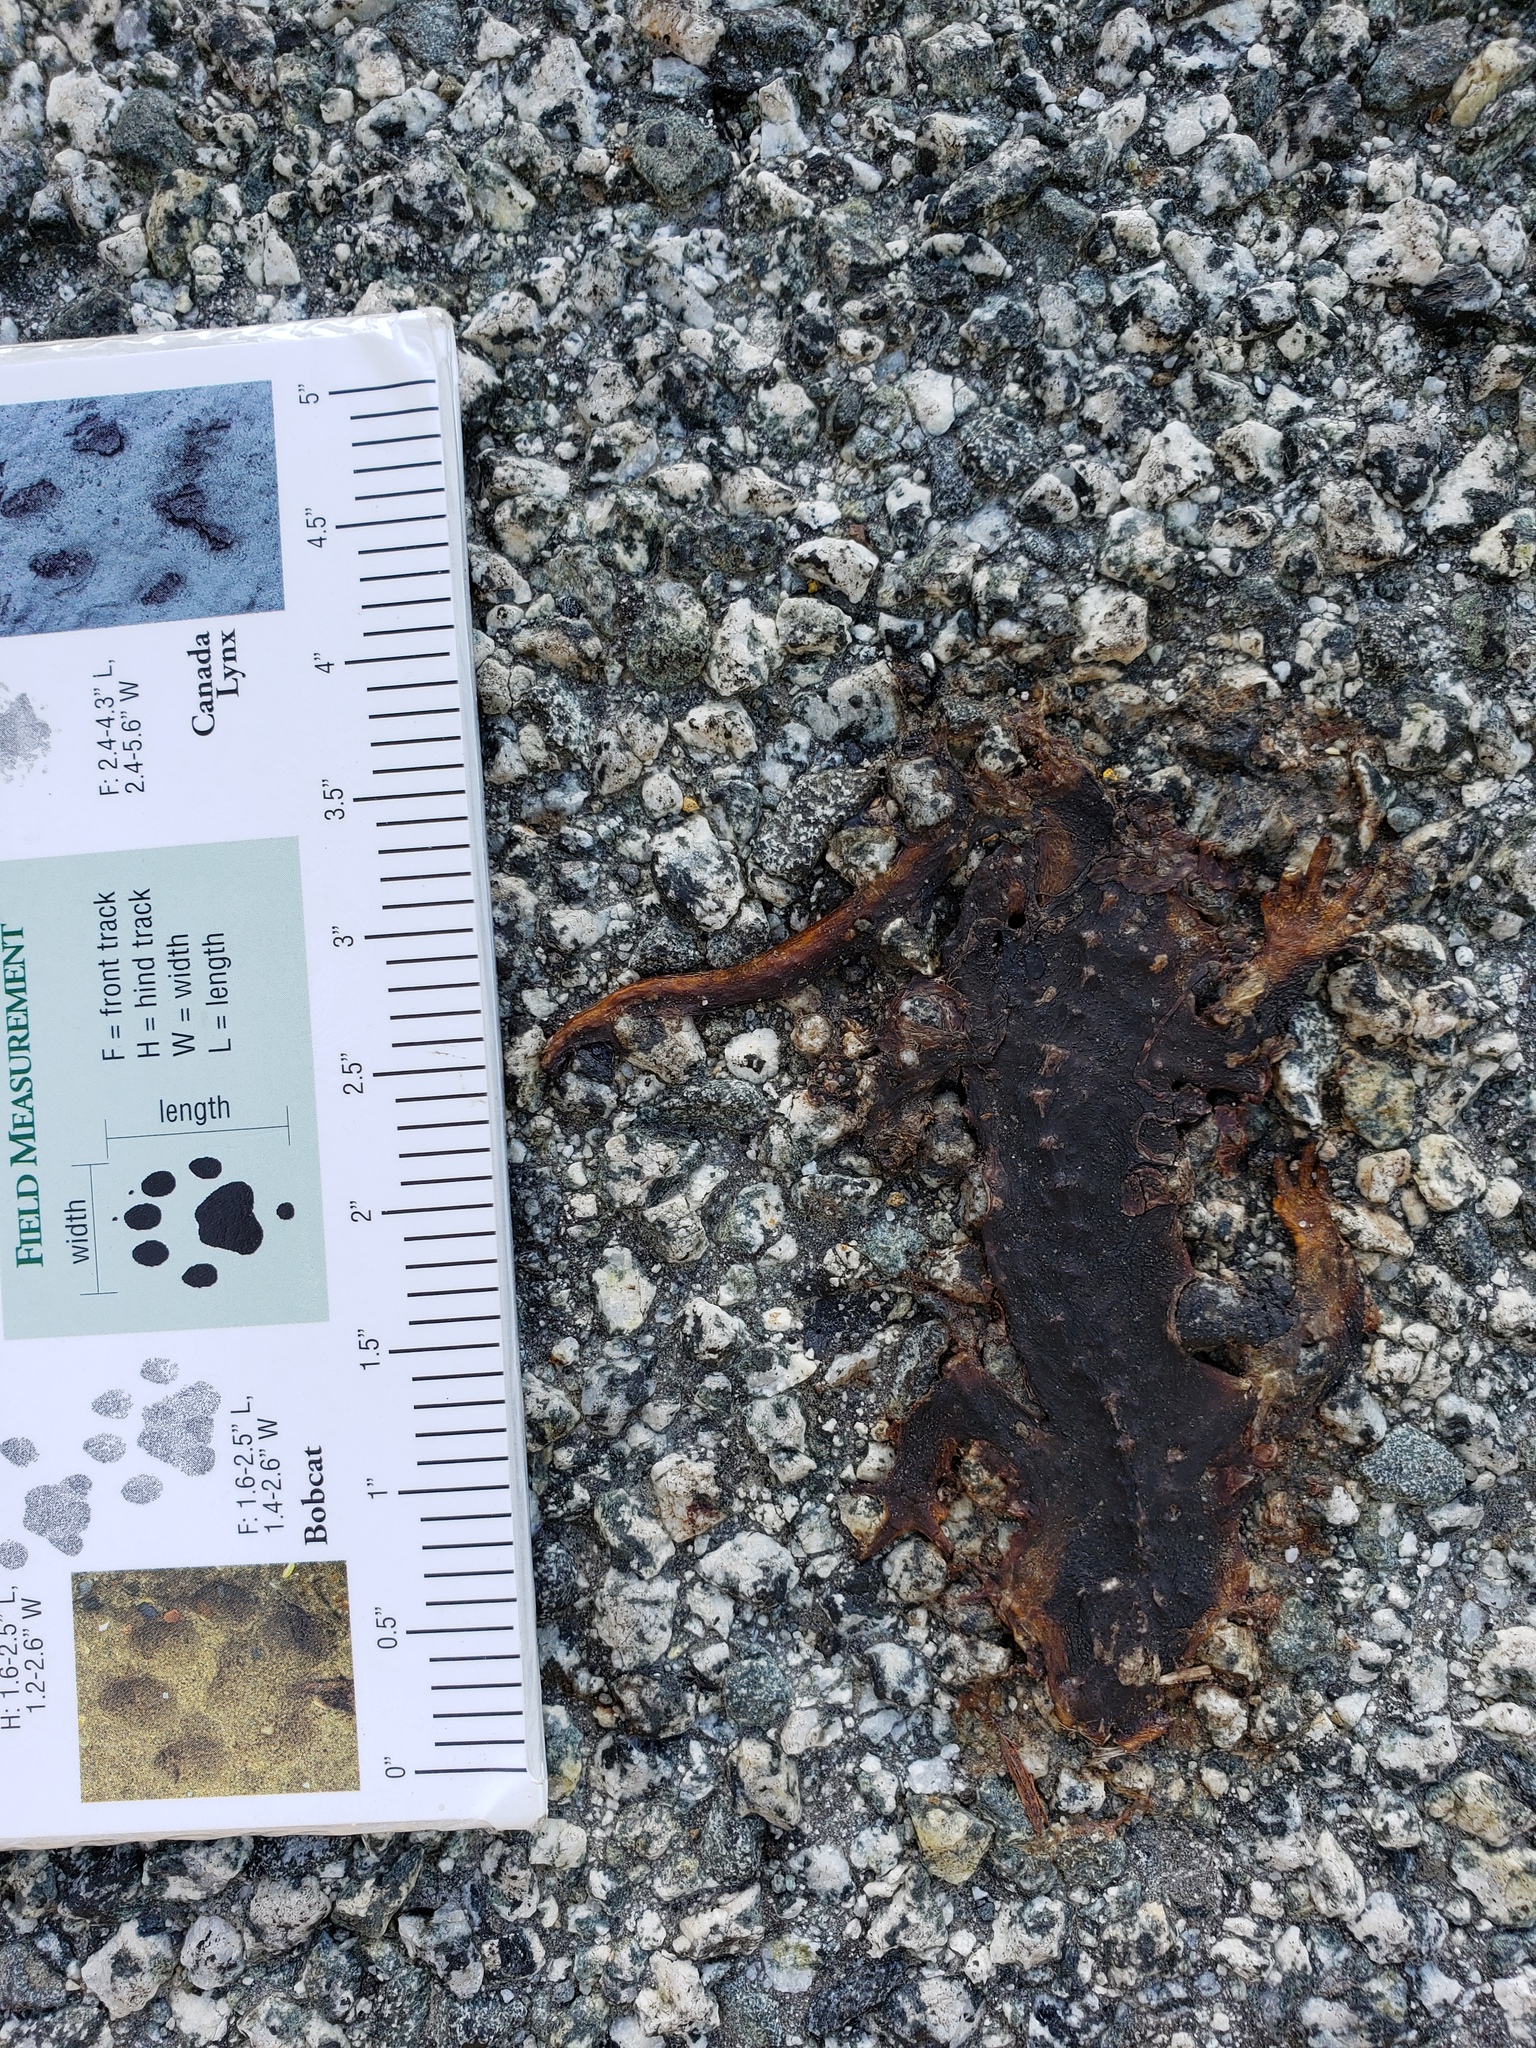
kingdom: Animalia
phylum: Chordata
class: Amphibia
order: Caudata
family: Salamandridae
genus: Taricha
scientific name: Taricha
